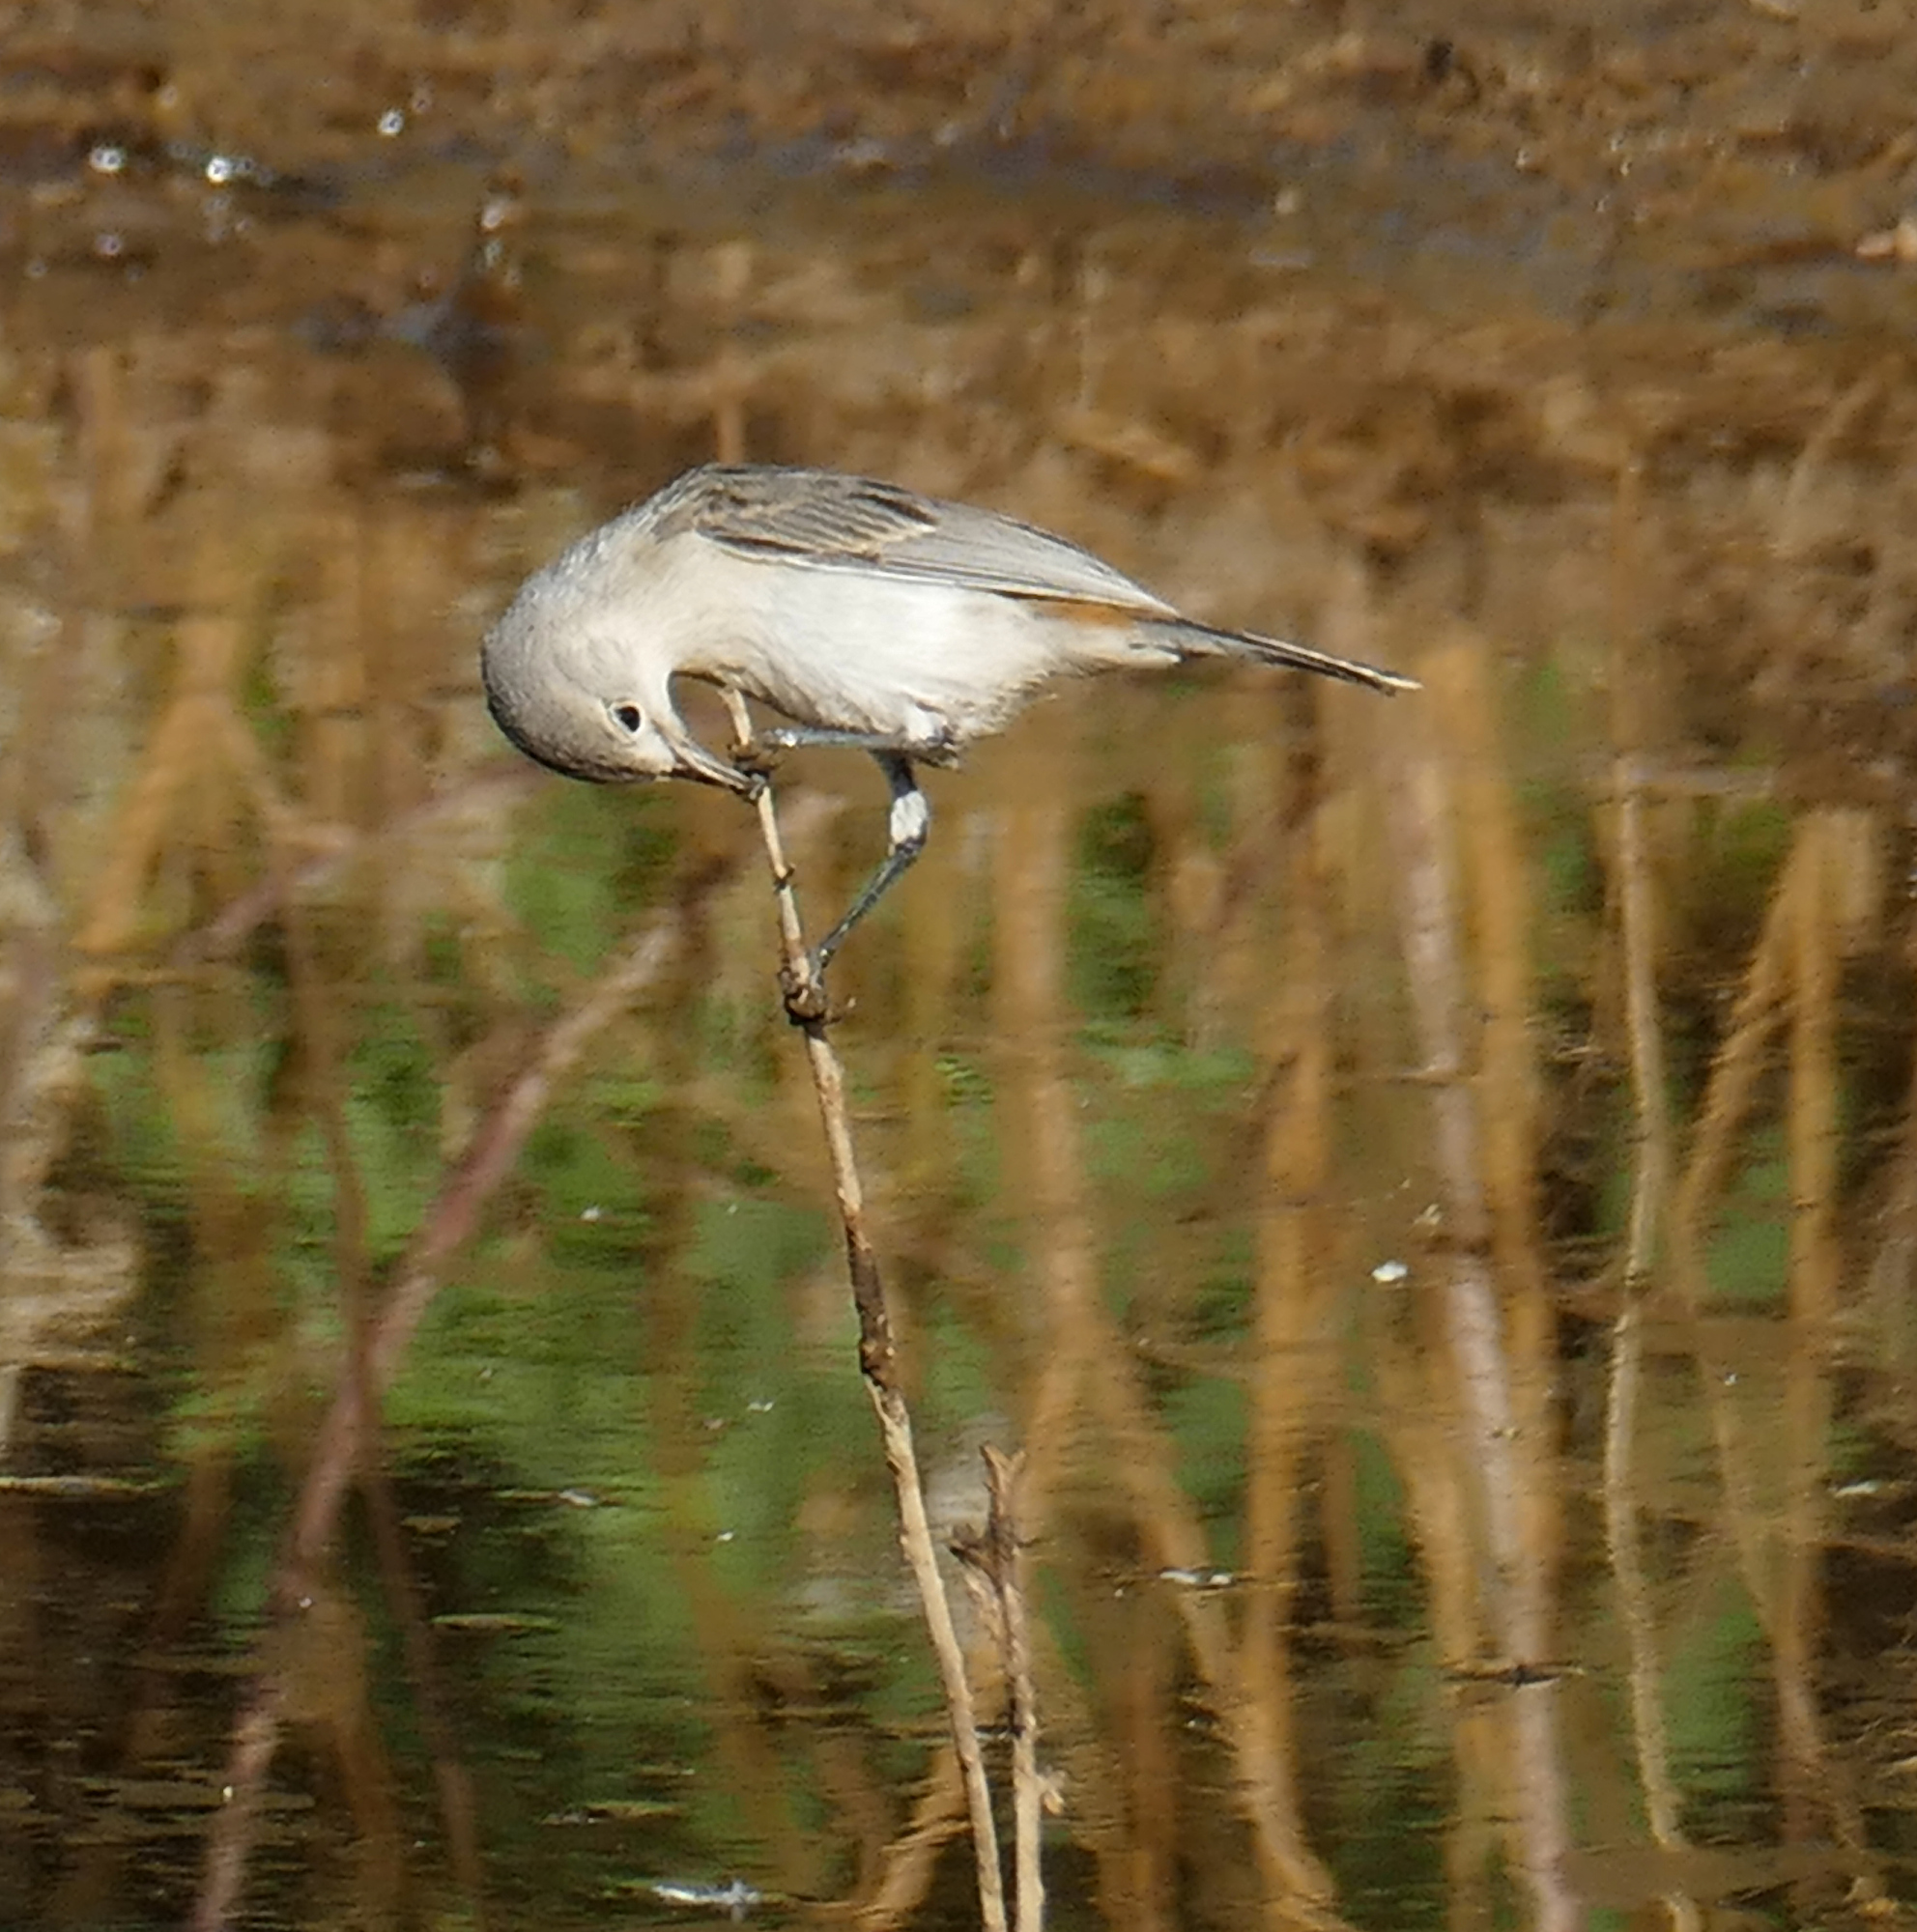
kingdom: Animalia
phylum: Chordata
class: Aves
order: Passeriformes
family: Parulidae
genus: Leiothlypis
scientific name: Leiothlypis luciae
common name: Lucy's warbler
